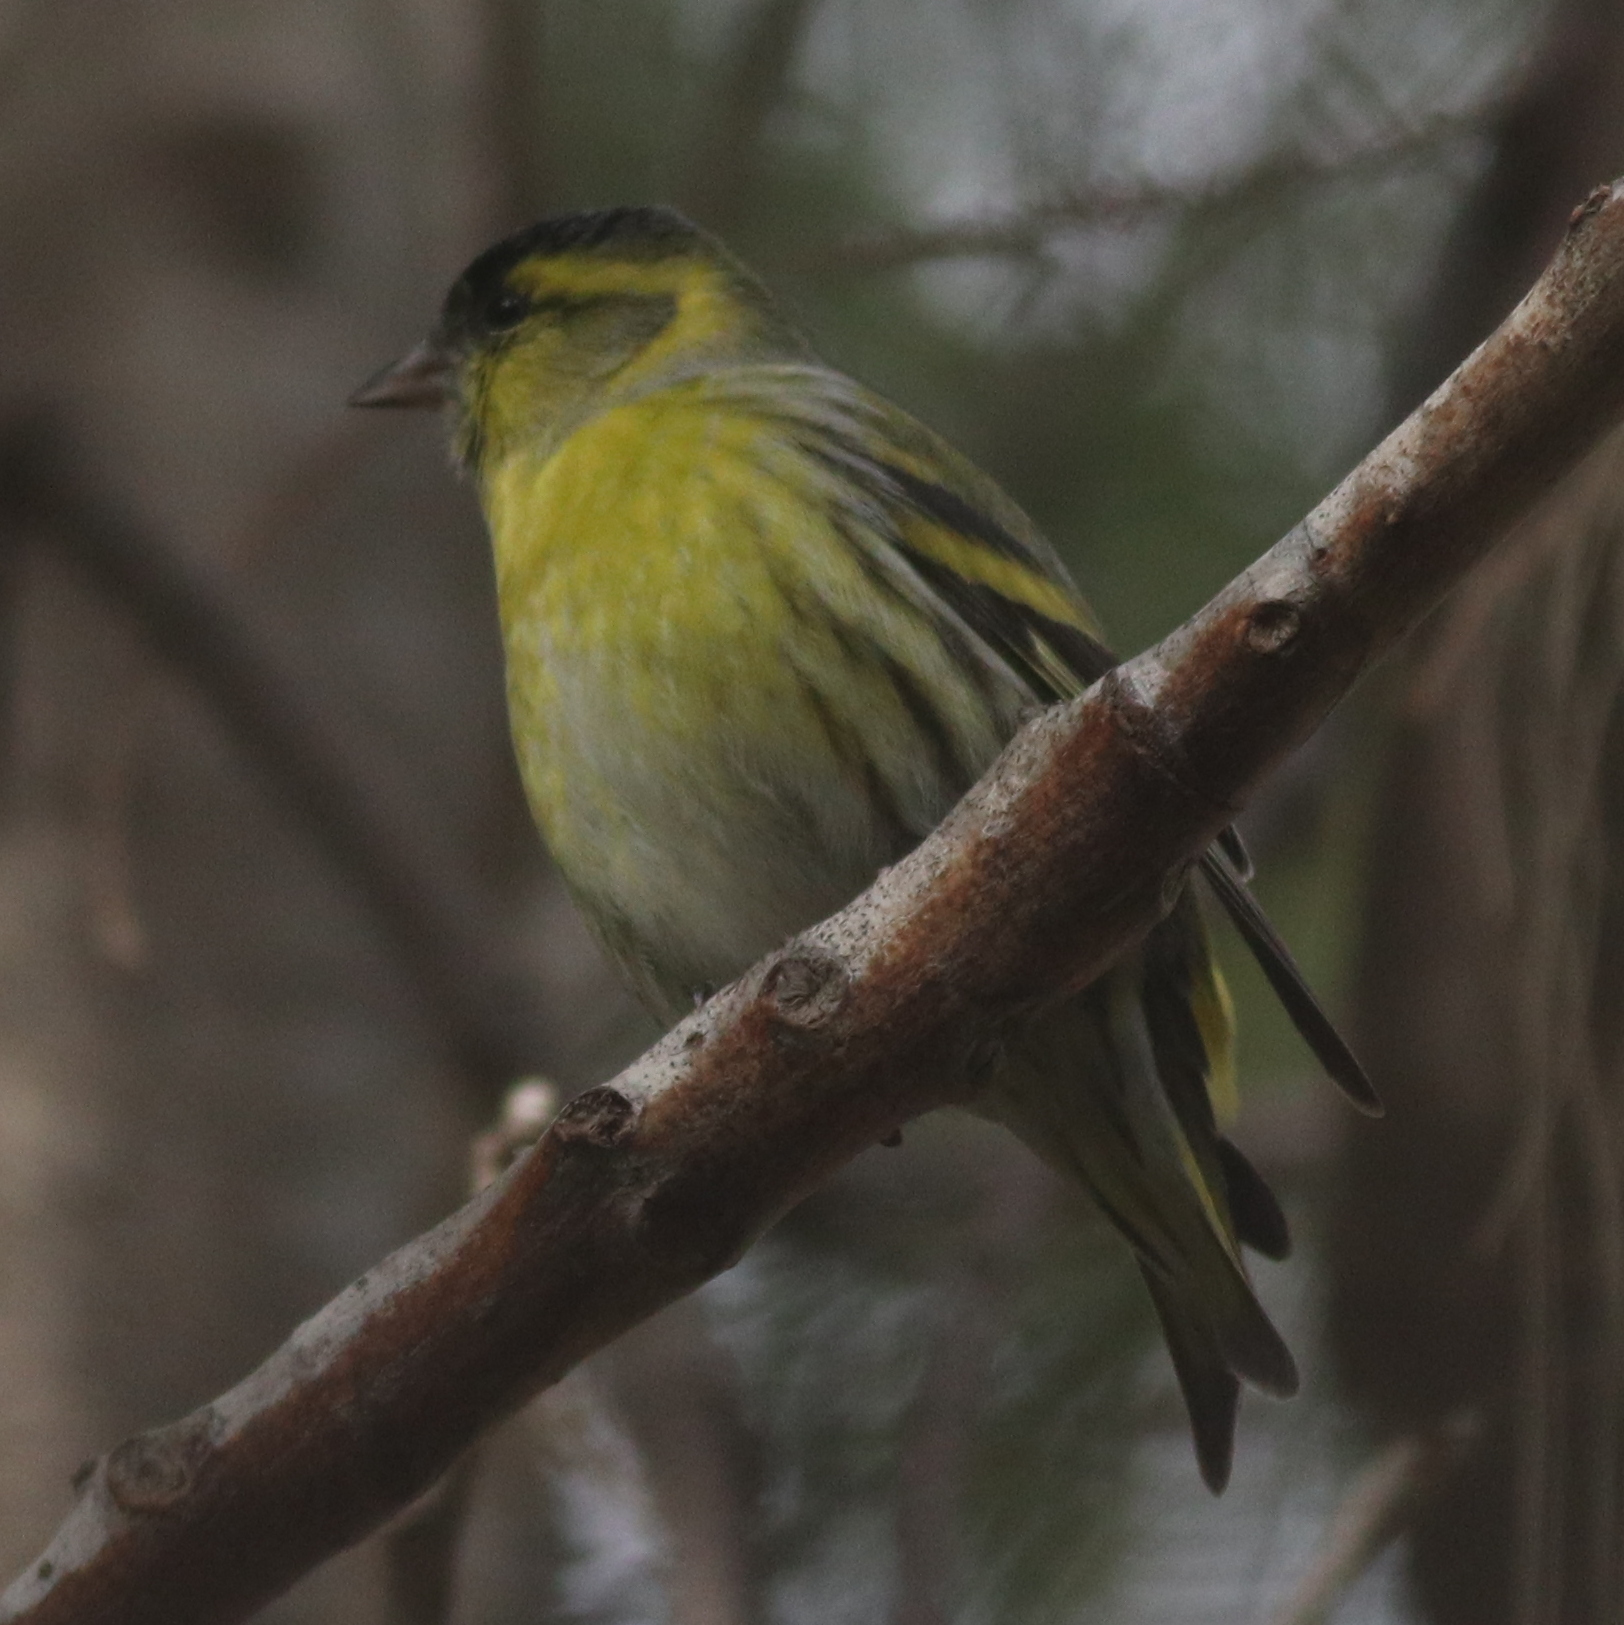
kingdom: Animalia
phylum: Chordata
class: Aves
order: Passeriformes
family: Fringillidae
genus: Spinus
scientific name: Spinus spinus
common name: Eurasian siskin
